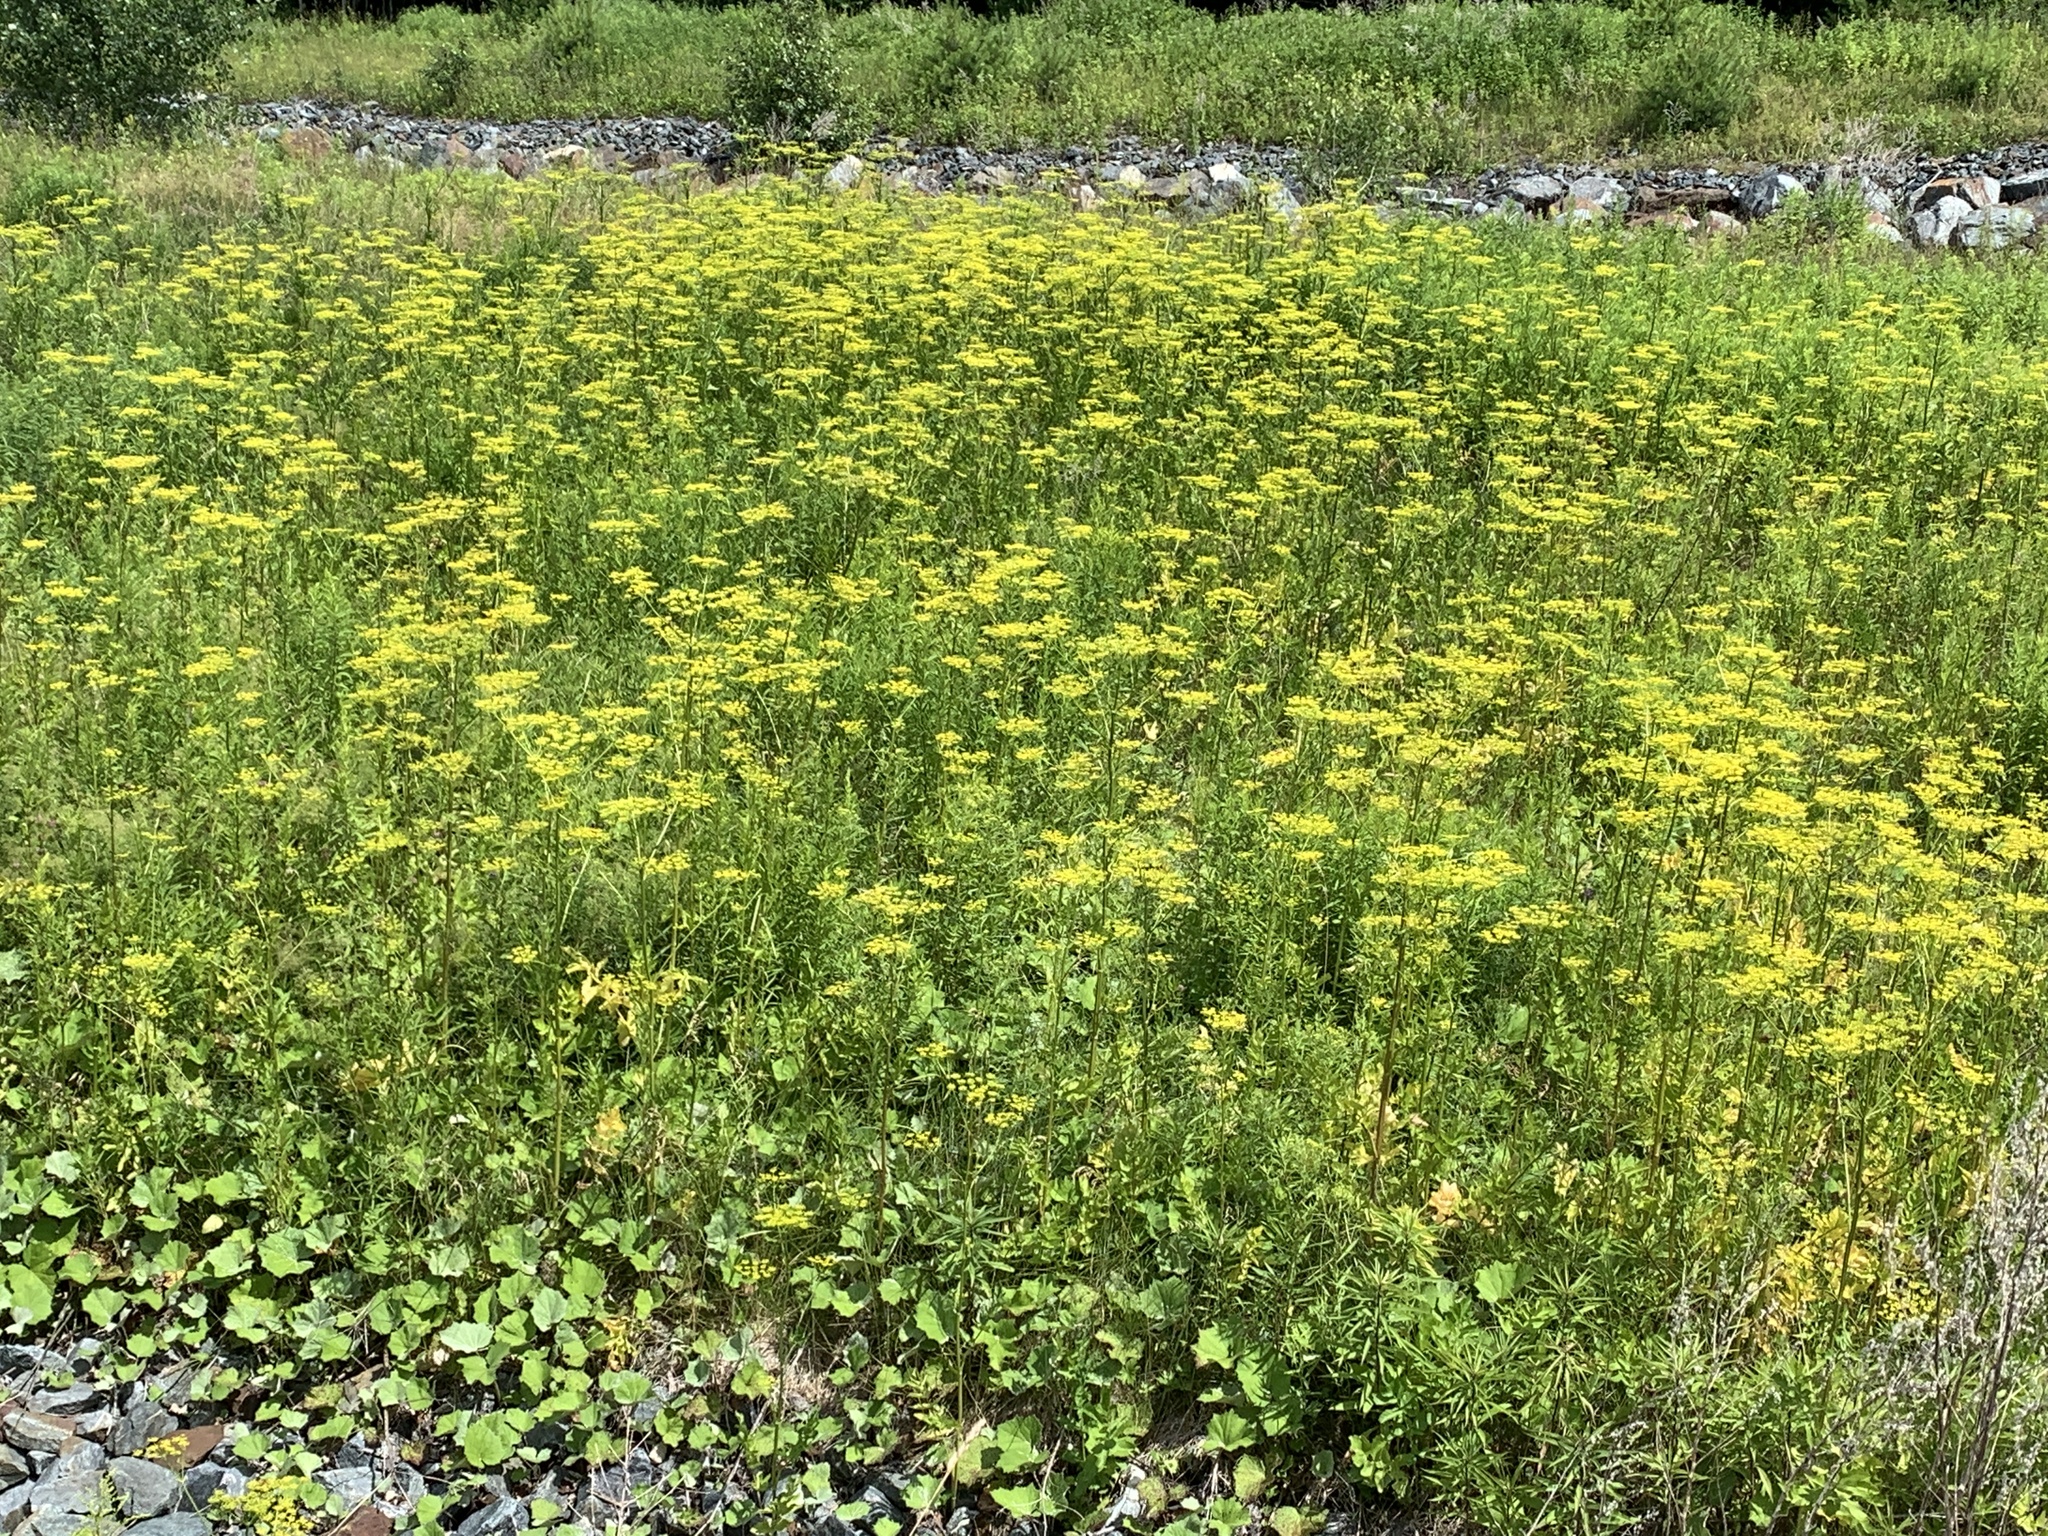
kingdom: Plantae
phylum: Tracheophyta
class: Magnoliopsida
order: Apiales
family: Apiaceae
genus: Pastinaca
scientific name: Pastinaca sativa
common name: Wild parsnip
